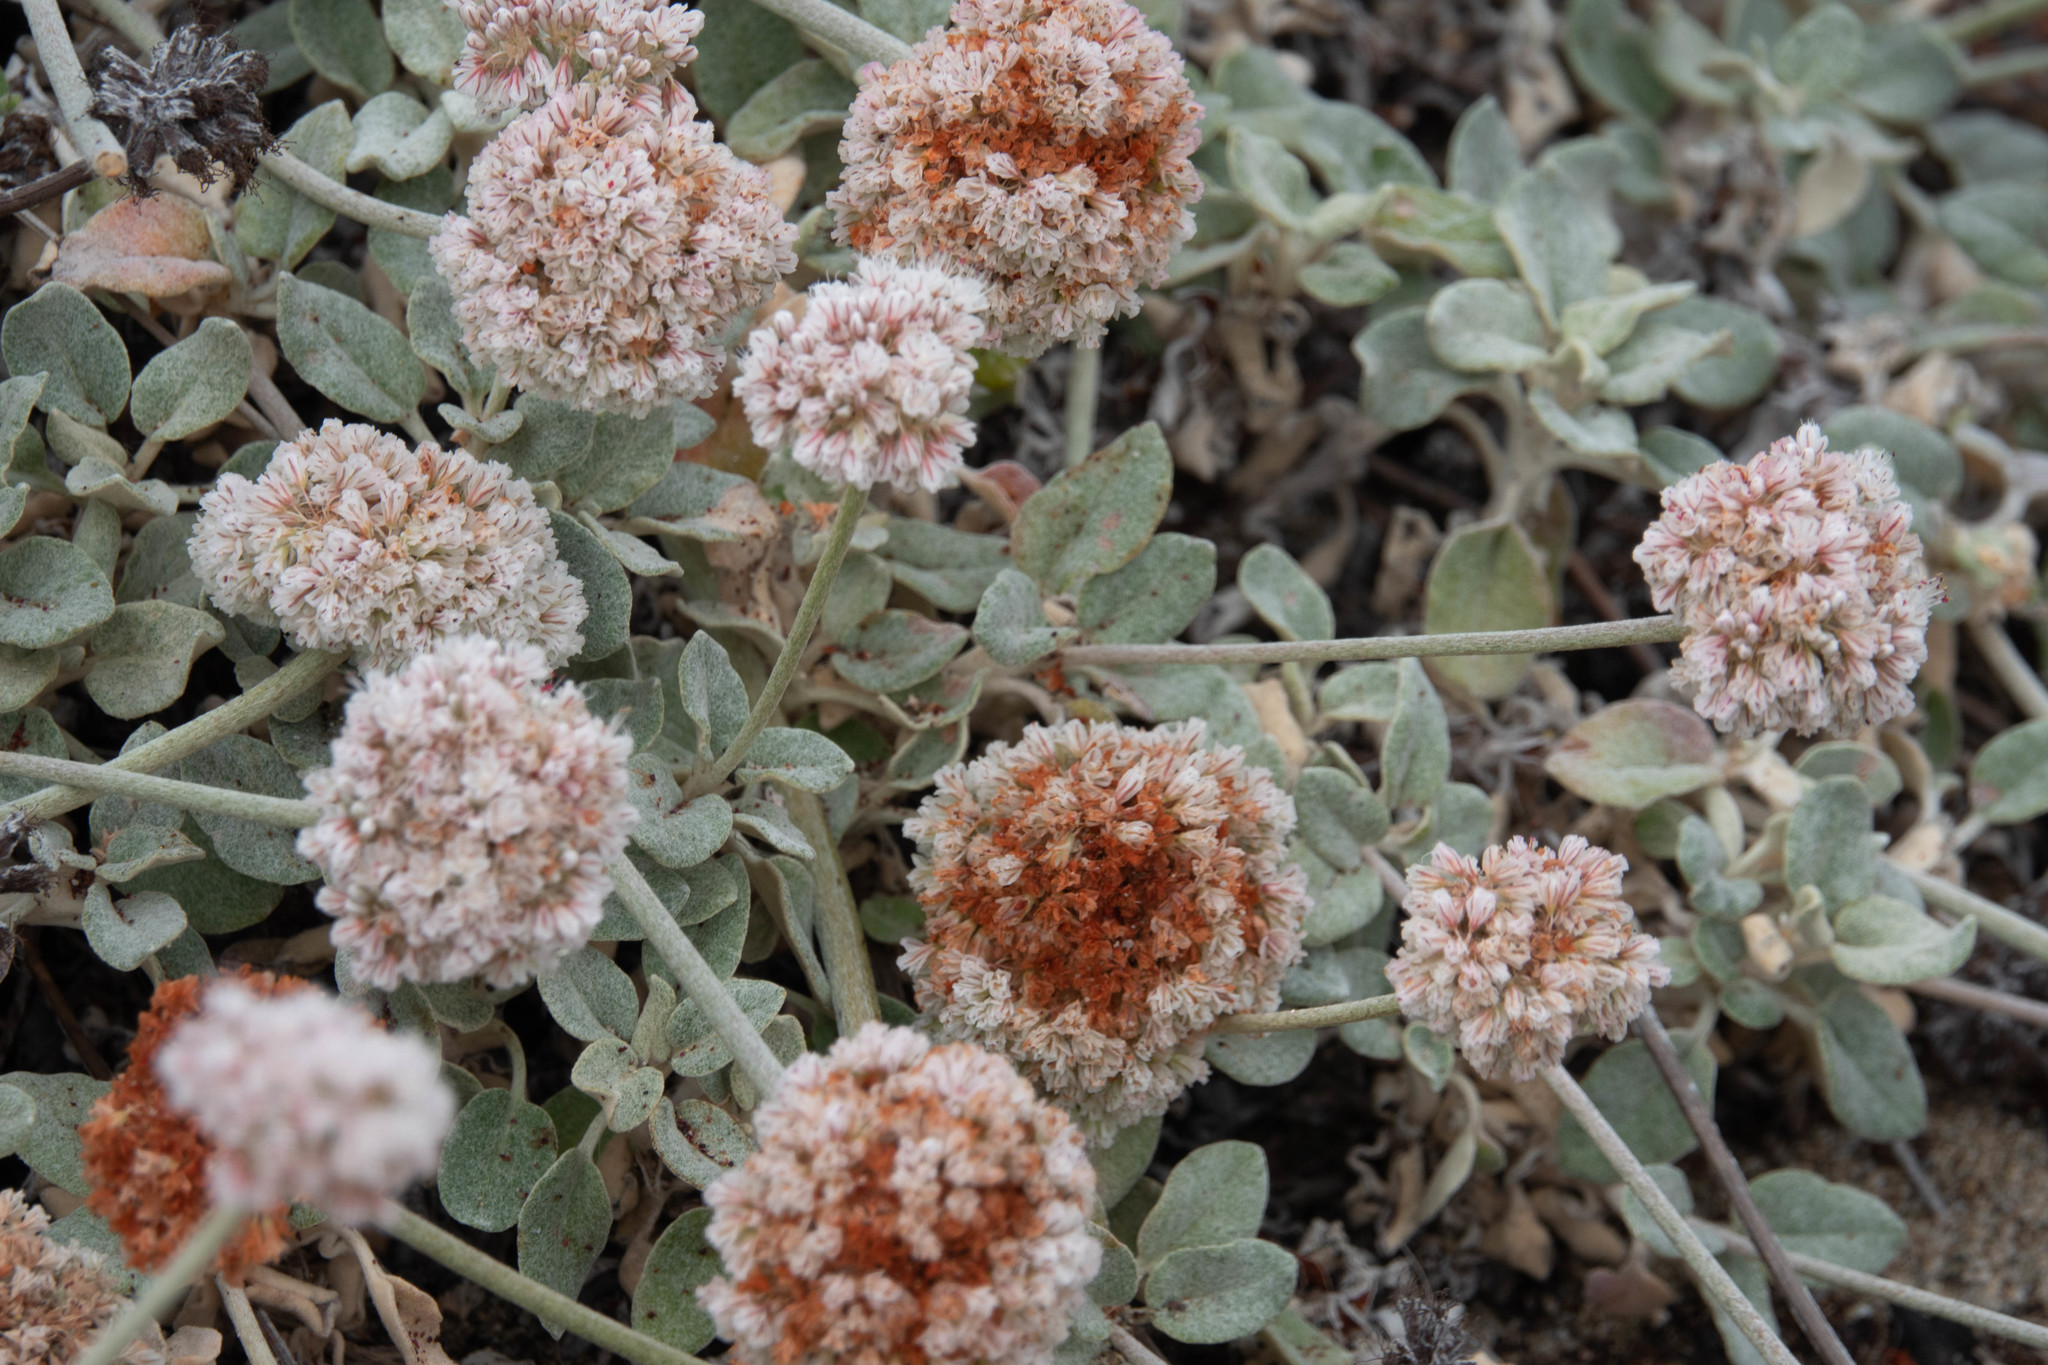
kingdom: Plantae
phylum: Tracheophyta
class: Magnoliopsida
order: Caryophyllales
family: Polygonaceae
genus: Eriogonum
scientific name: Eriogonum latifolium
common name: Seaside wild buckwheat
